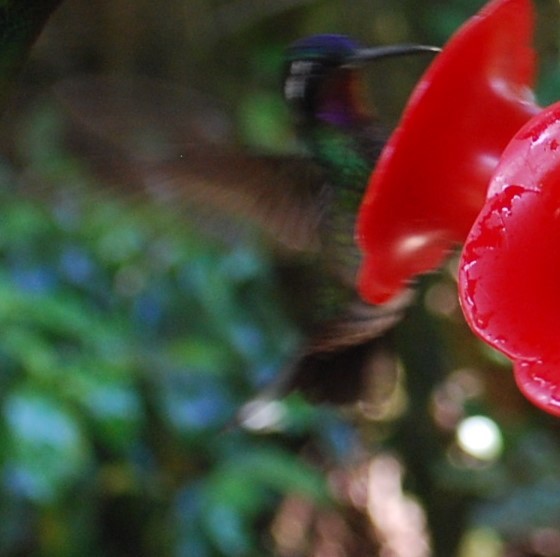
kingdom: Animalia
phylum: Chordata
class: Aves
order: Apodiformes
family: Trochilidae
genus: Lampornis
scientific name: Lampornis calolaemus
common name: Purple-throated mountain-gem
